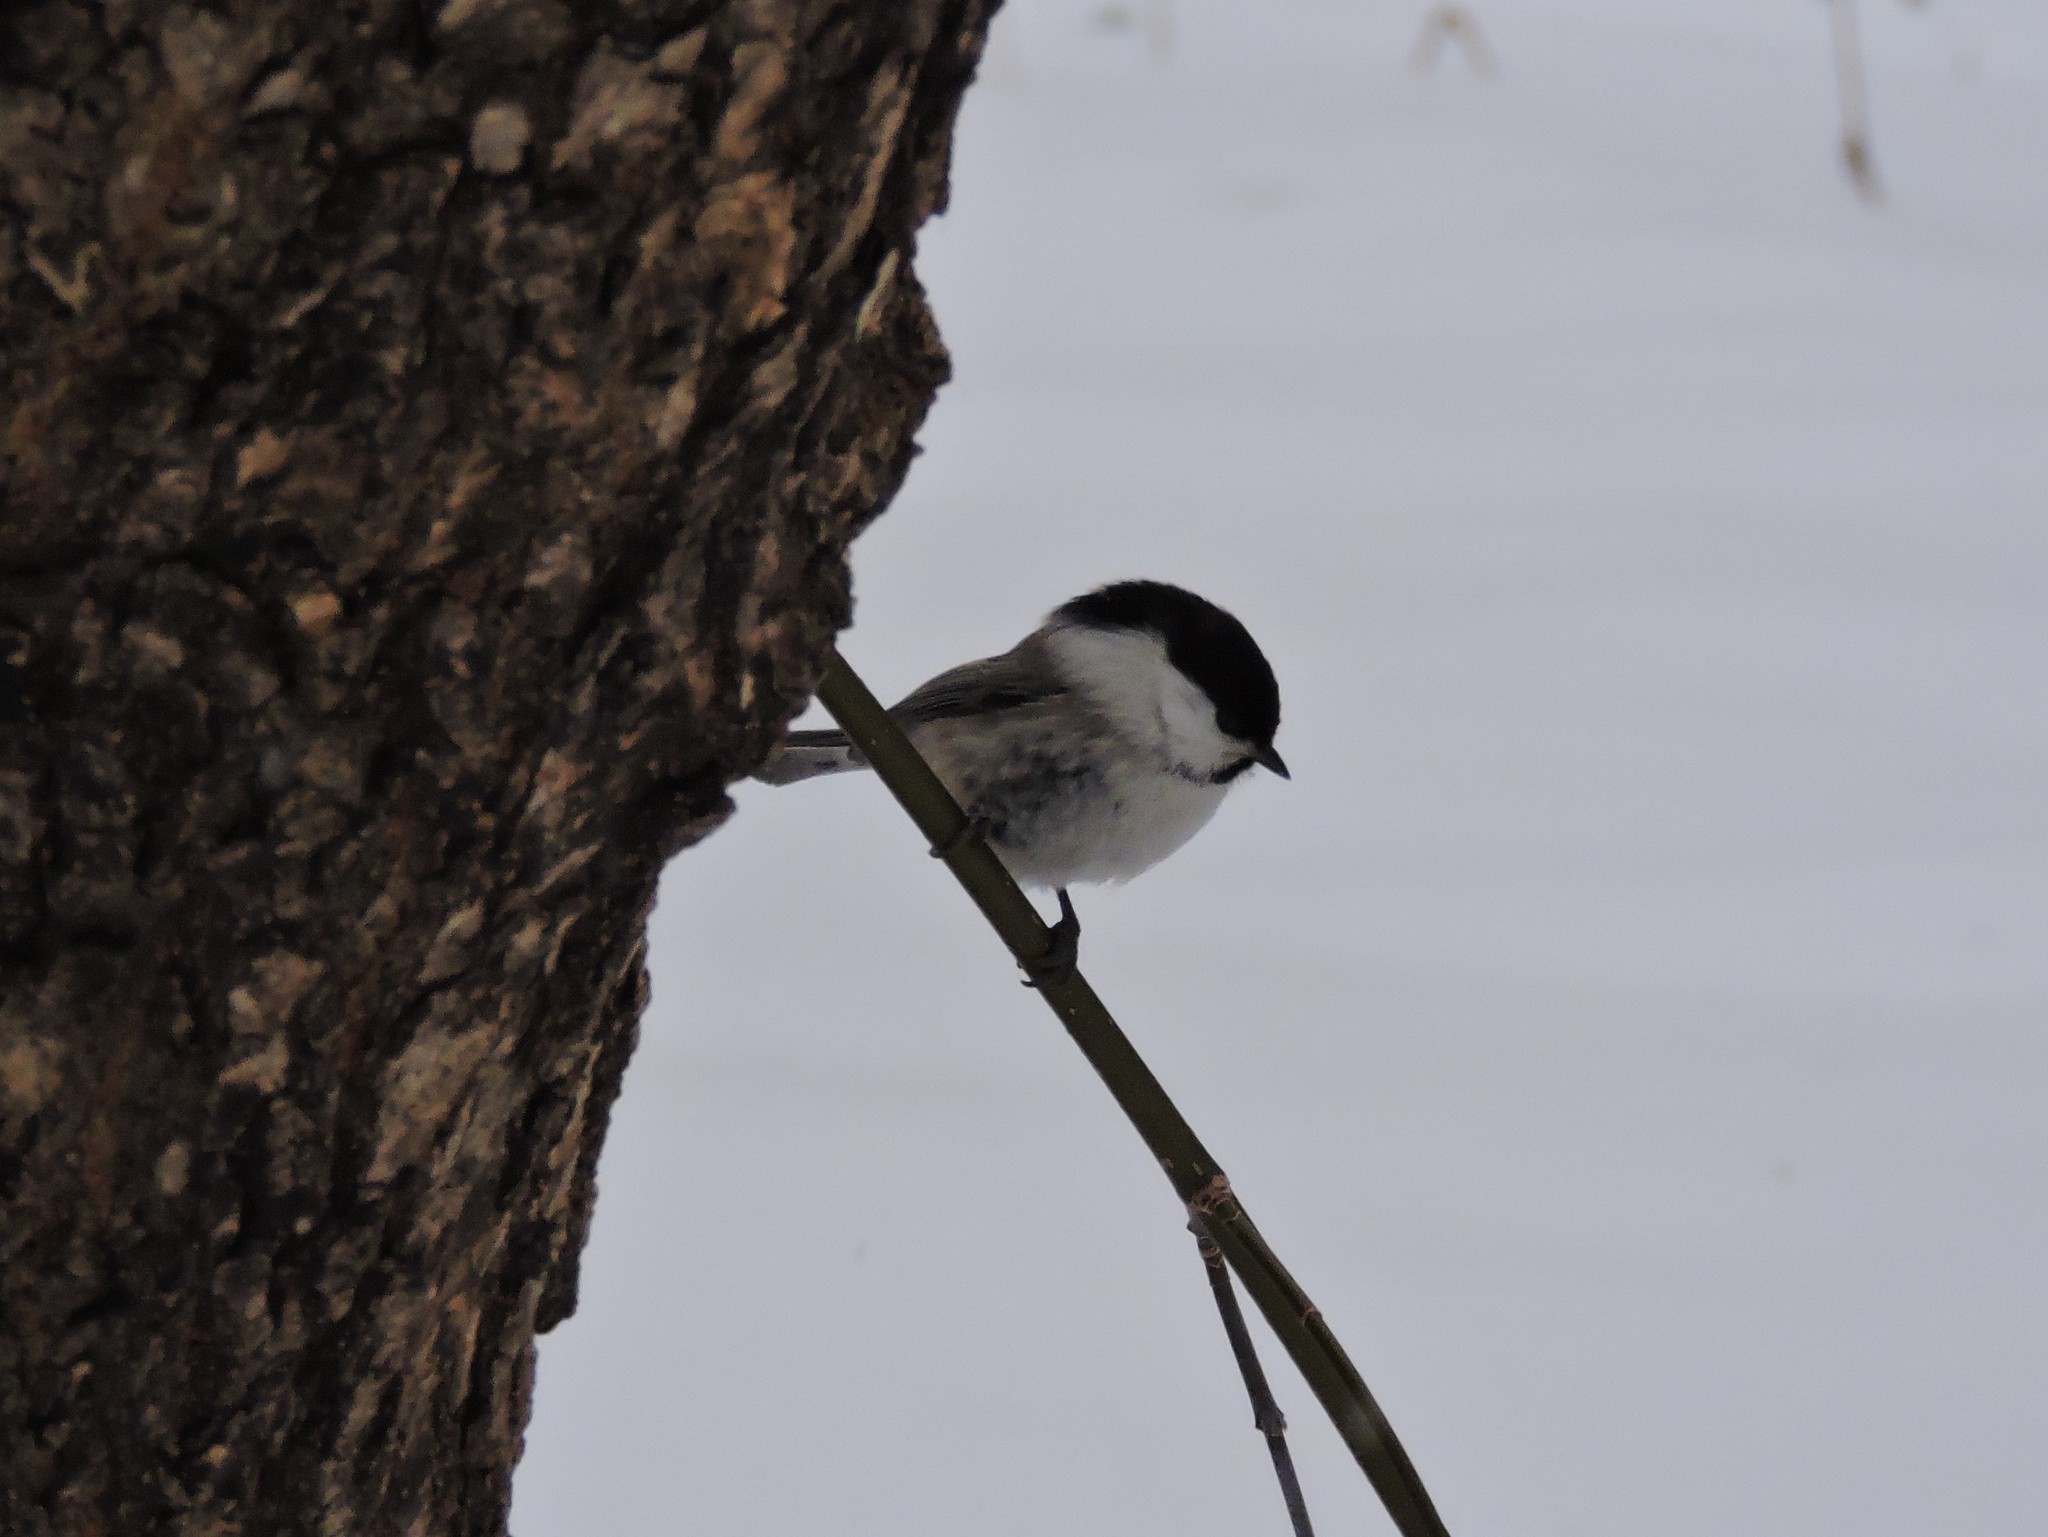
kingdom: Animalia
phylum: Chordata
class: Aves
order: Passeriformes
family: Paridae
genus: Poecile
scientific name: Poecile montanus
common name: Willow tit
